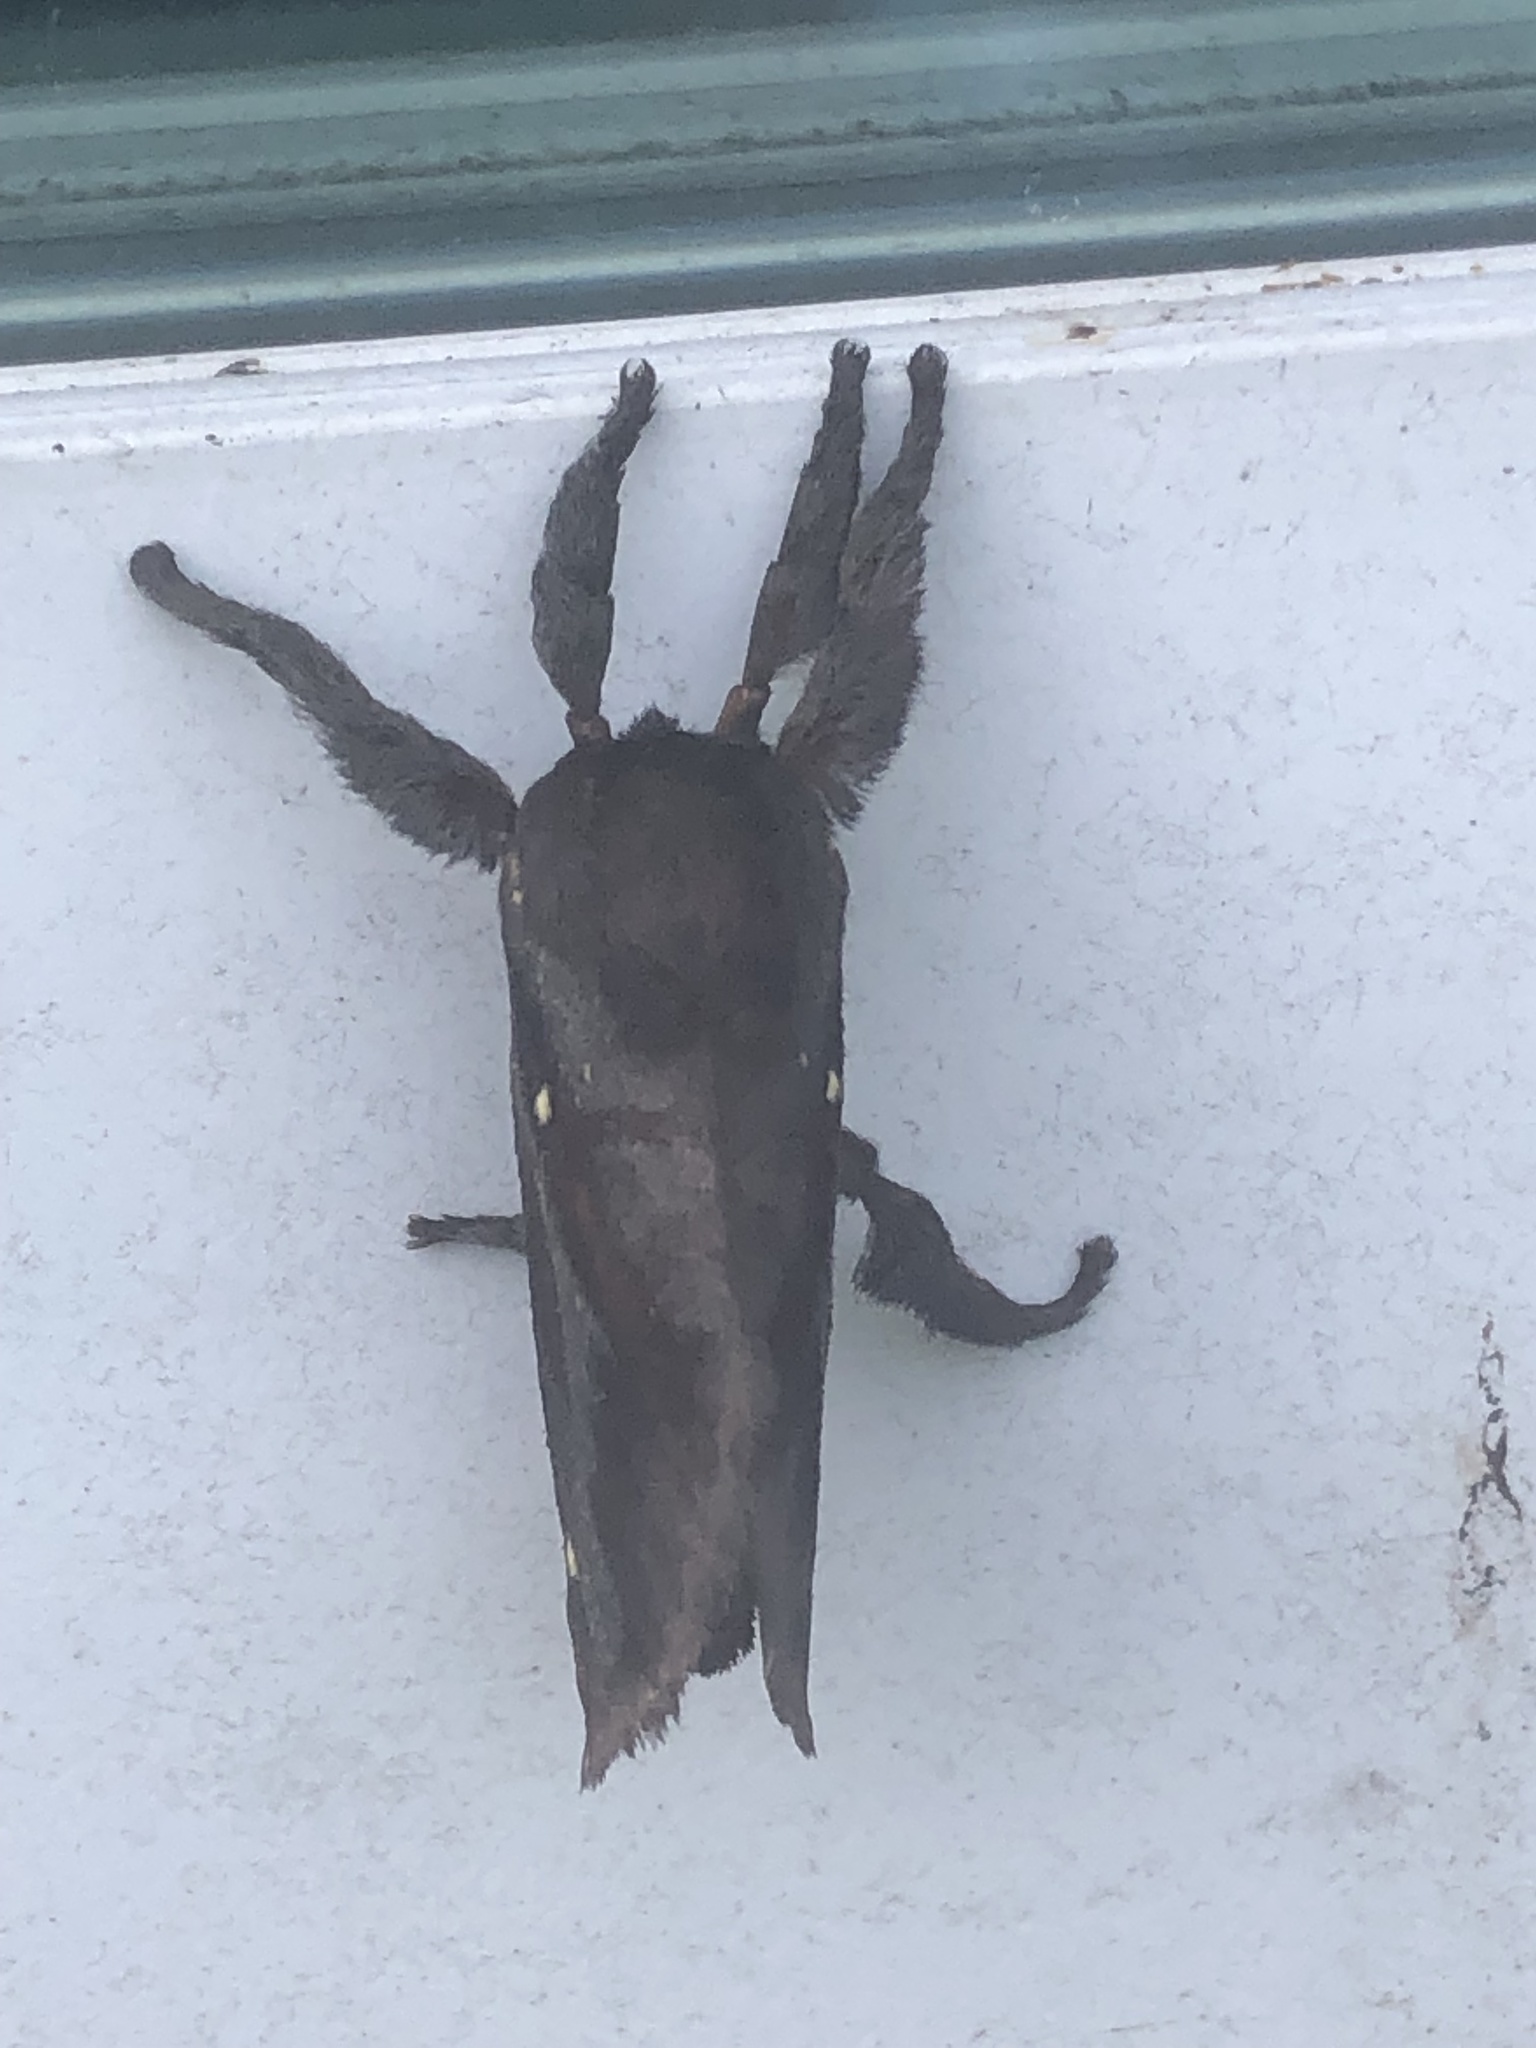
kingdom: Animalia
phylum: Arthropoda
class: Insecta
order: Lepidoptera
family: Limacodidae
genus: Acharia
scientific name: Acharia stimulea
